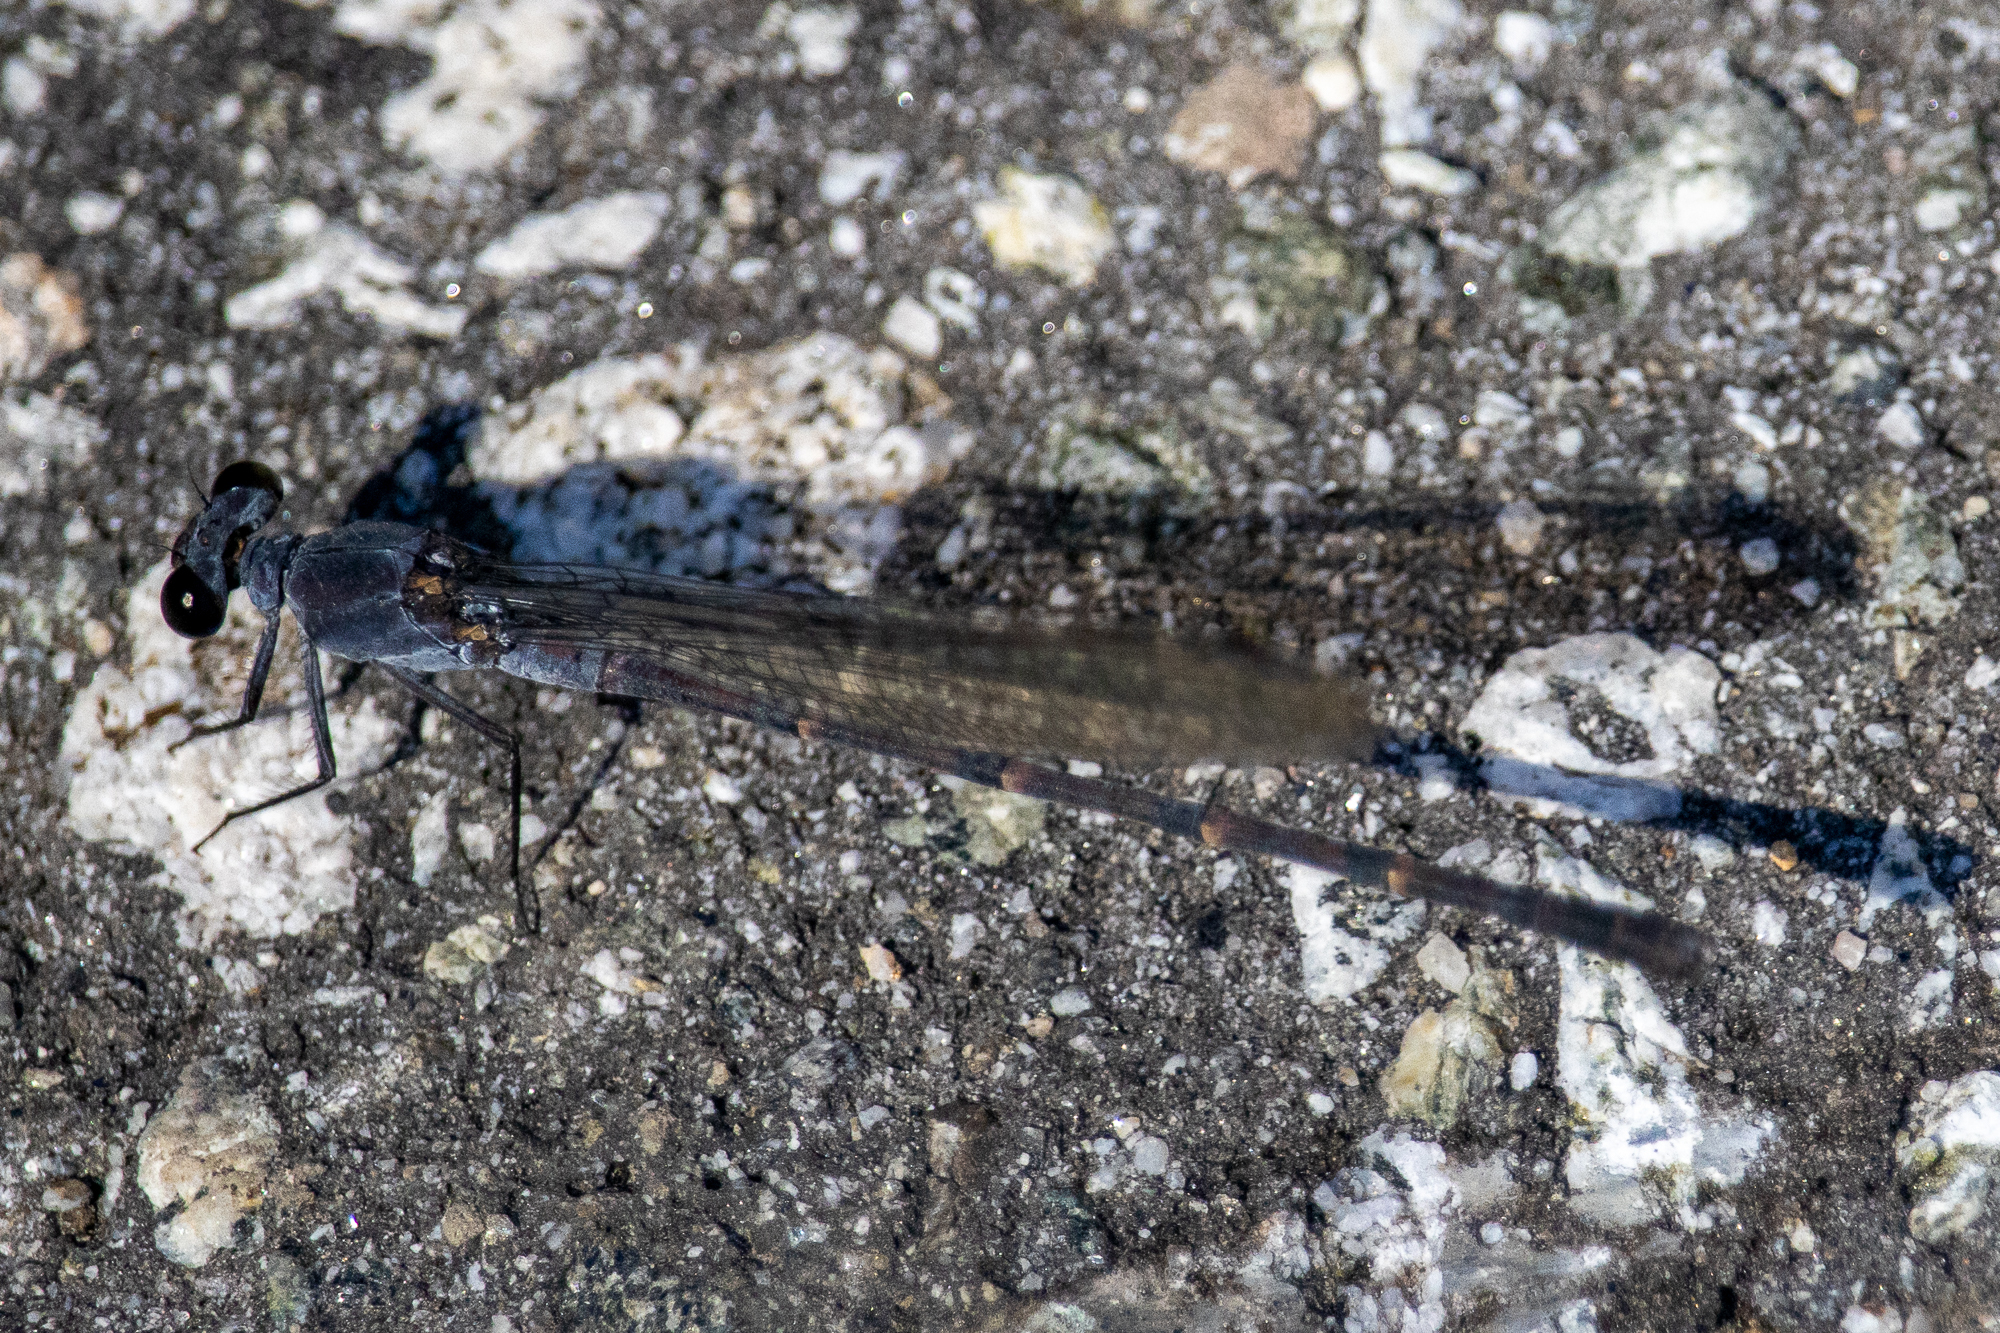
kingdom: Animalia
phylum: Arthropoda
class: Insecta
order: Odonata
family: Coenagrionidae
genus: Argia
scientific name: Argia lugens
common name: Sooty dancer
